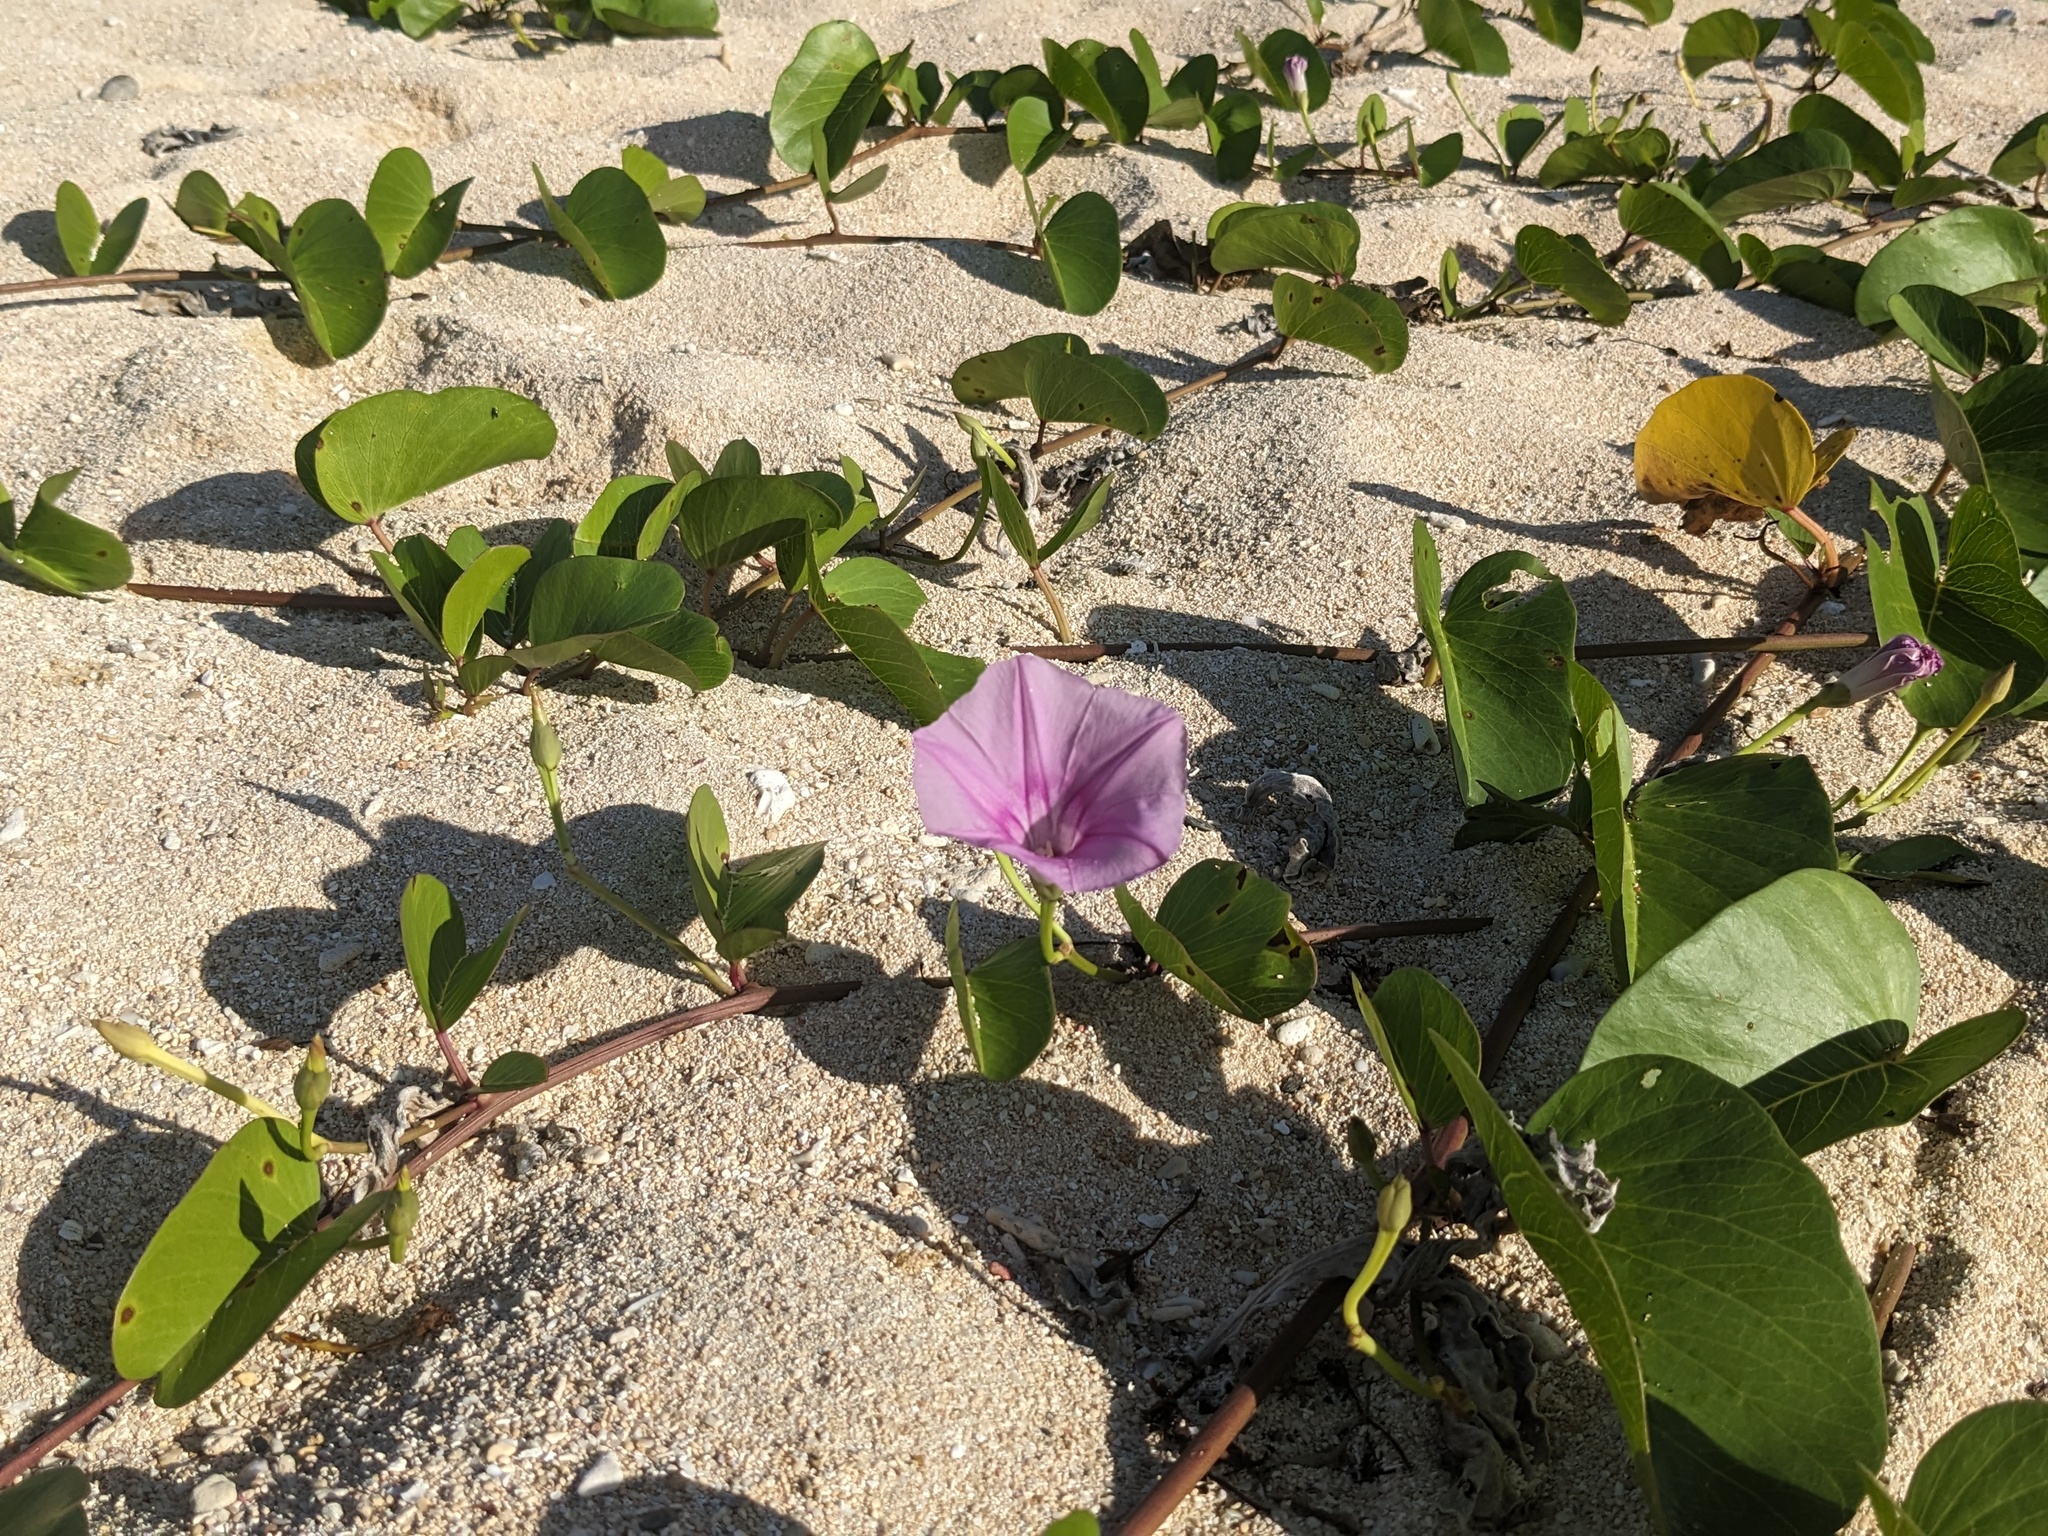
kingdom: Plantae
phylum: Tracheophyta
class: Magnoliopsida
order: Solanales
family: Convolvulaceae
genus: Ipomoea
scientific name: Ipomoea pes-caprae
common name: Beach morning glory
